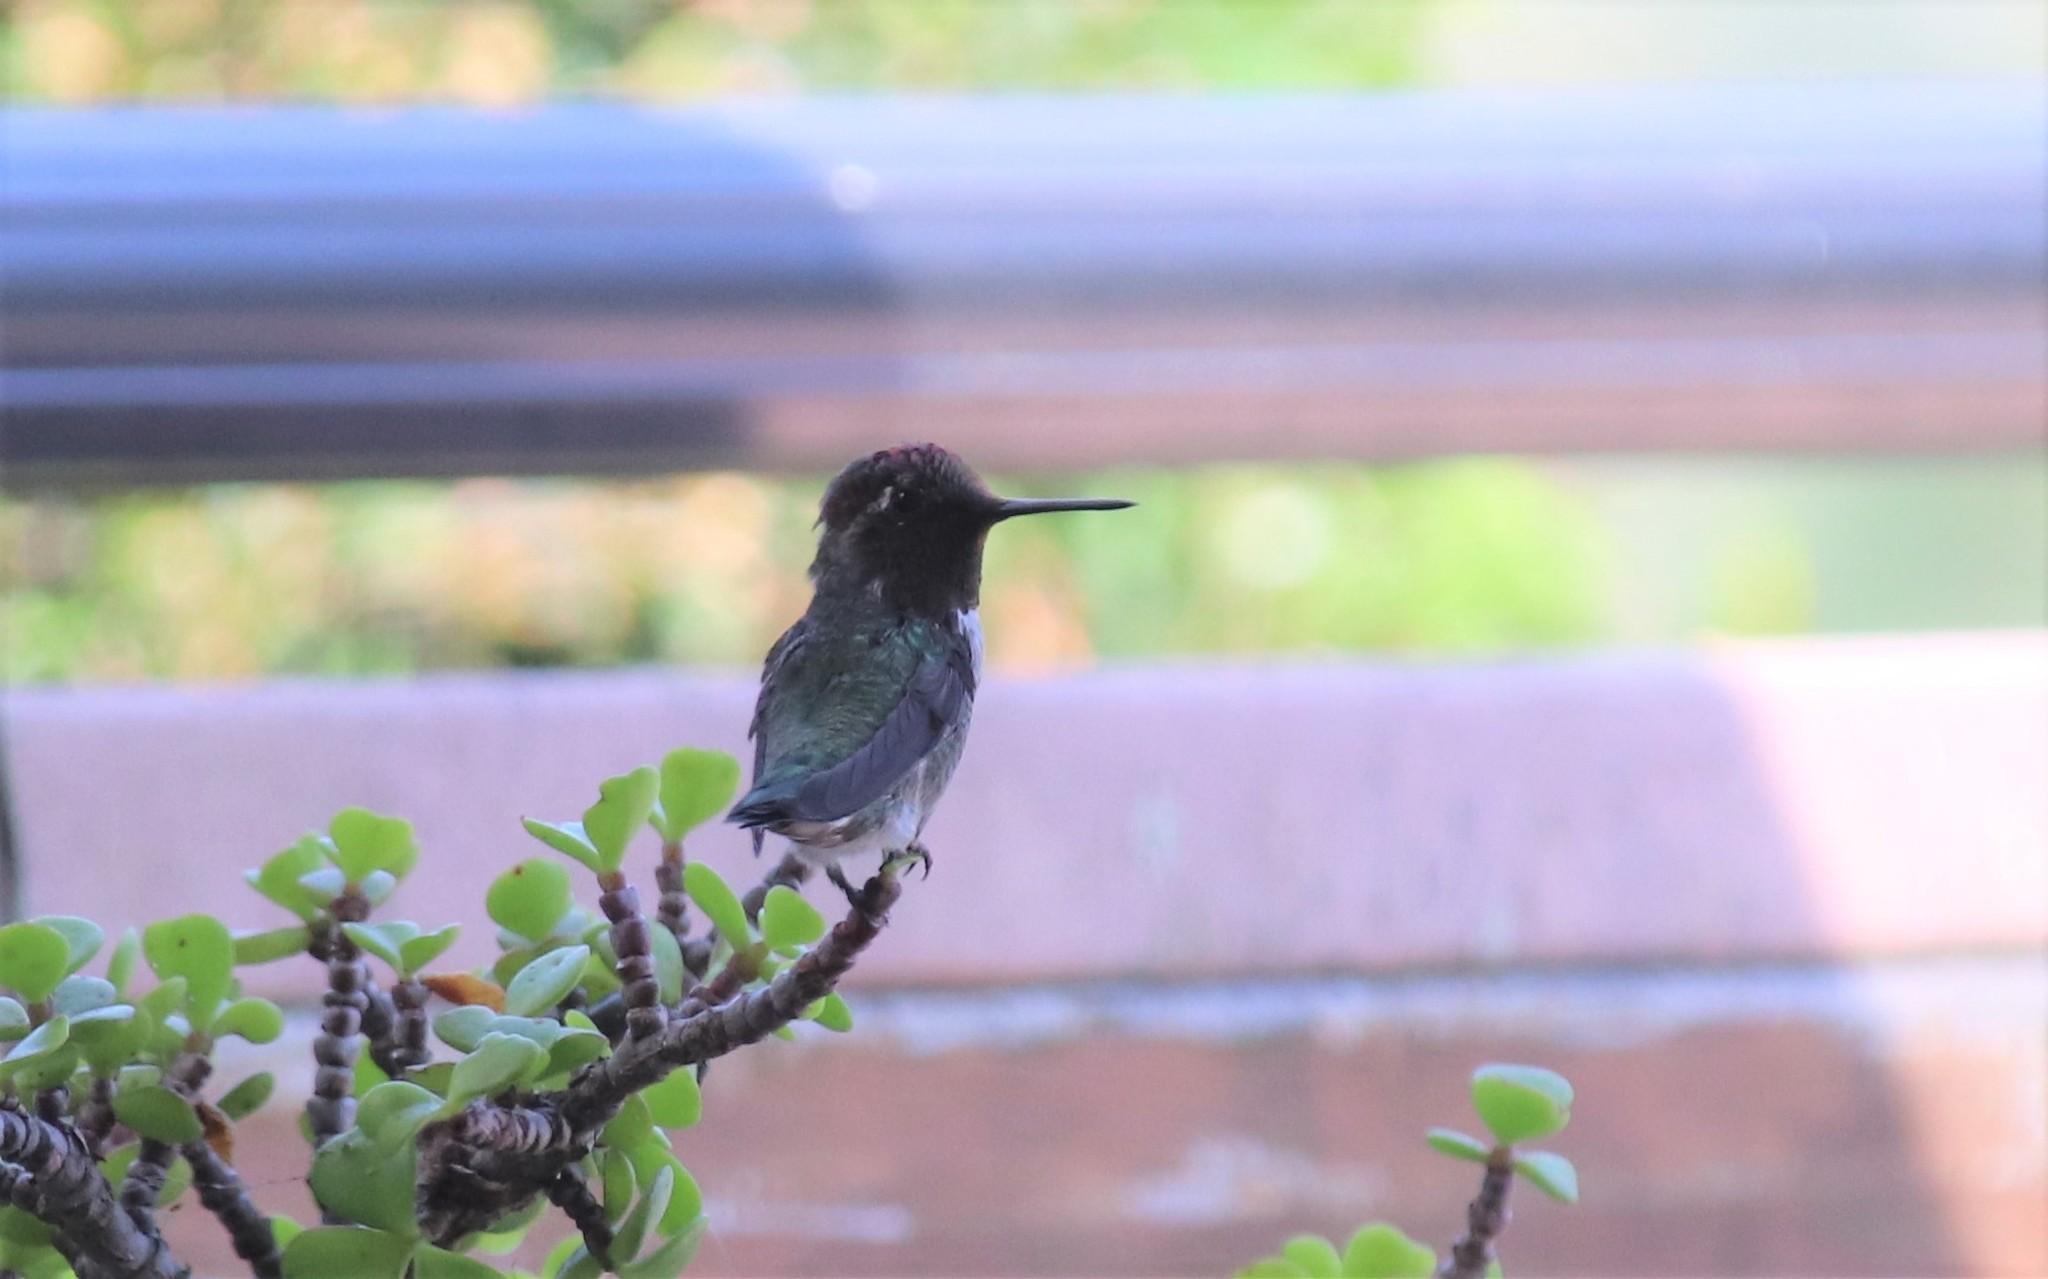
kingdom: Animalia
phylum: Chordata
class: Aves
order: Apodiformes
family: Trochilidae
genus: Calypte
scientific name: Calypte anna
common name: Anna's hummingbird
